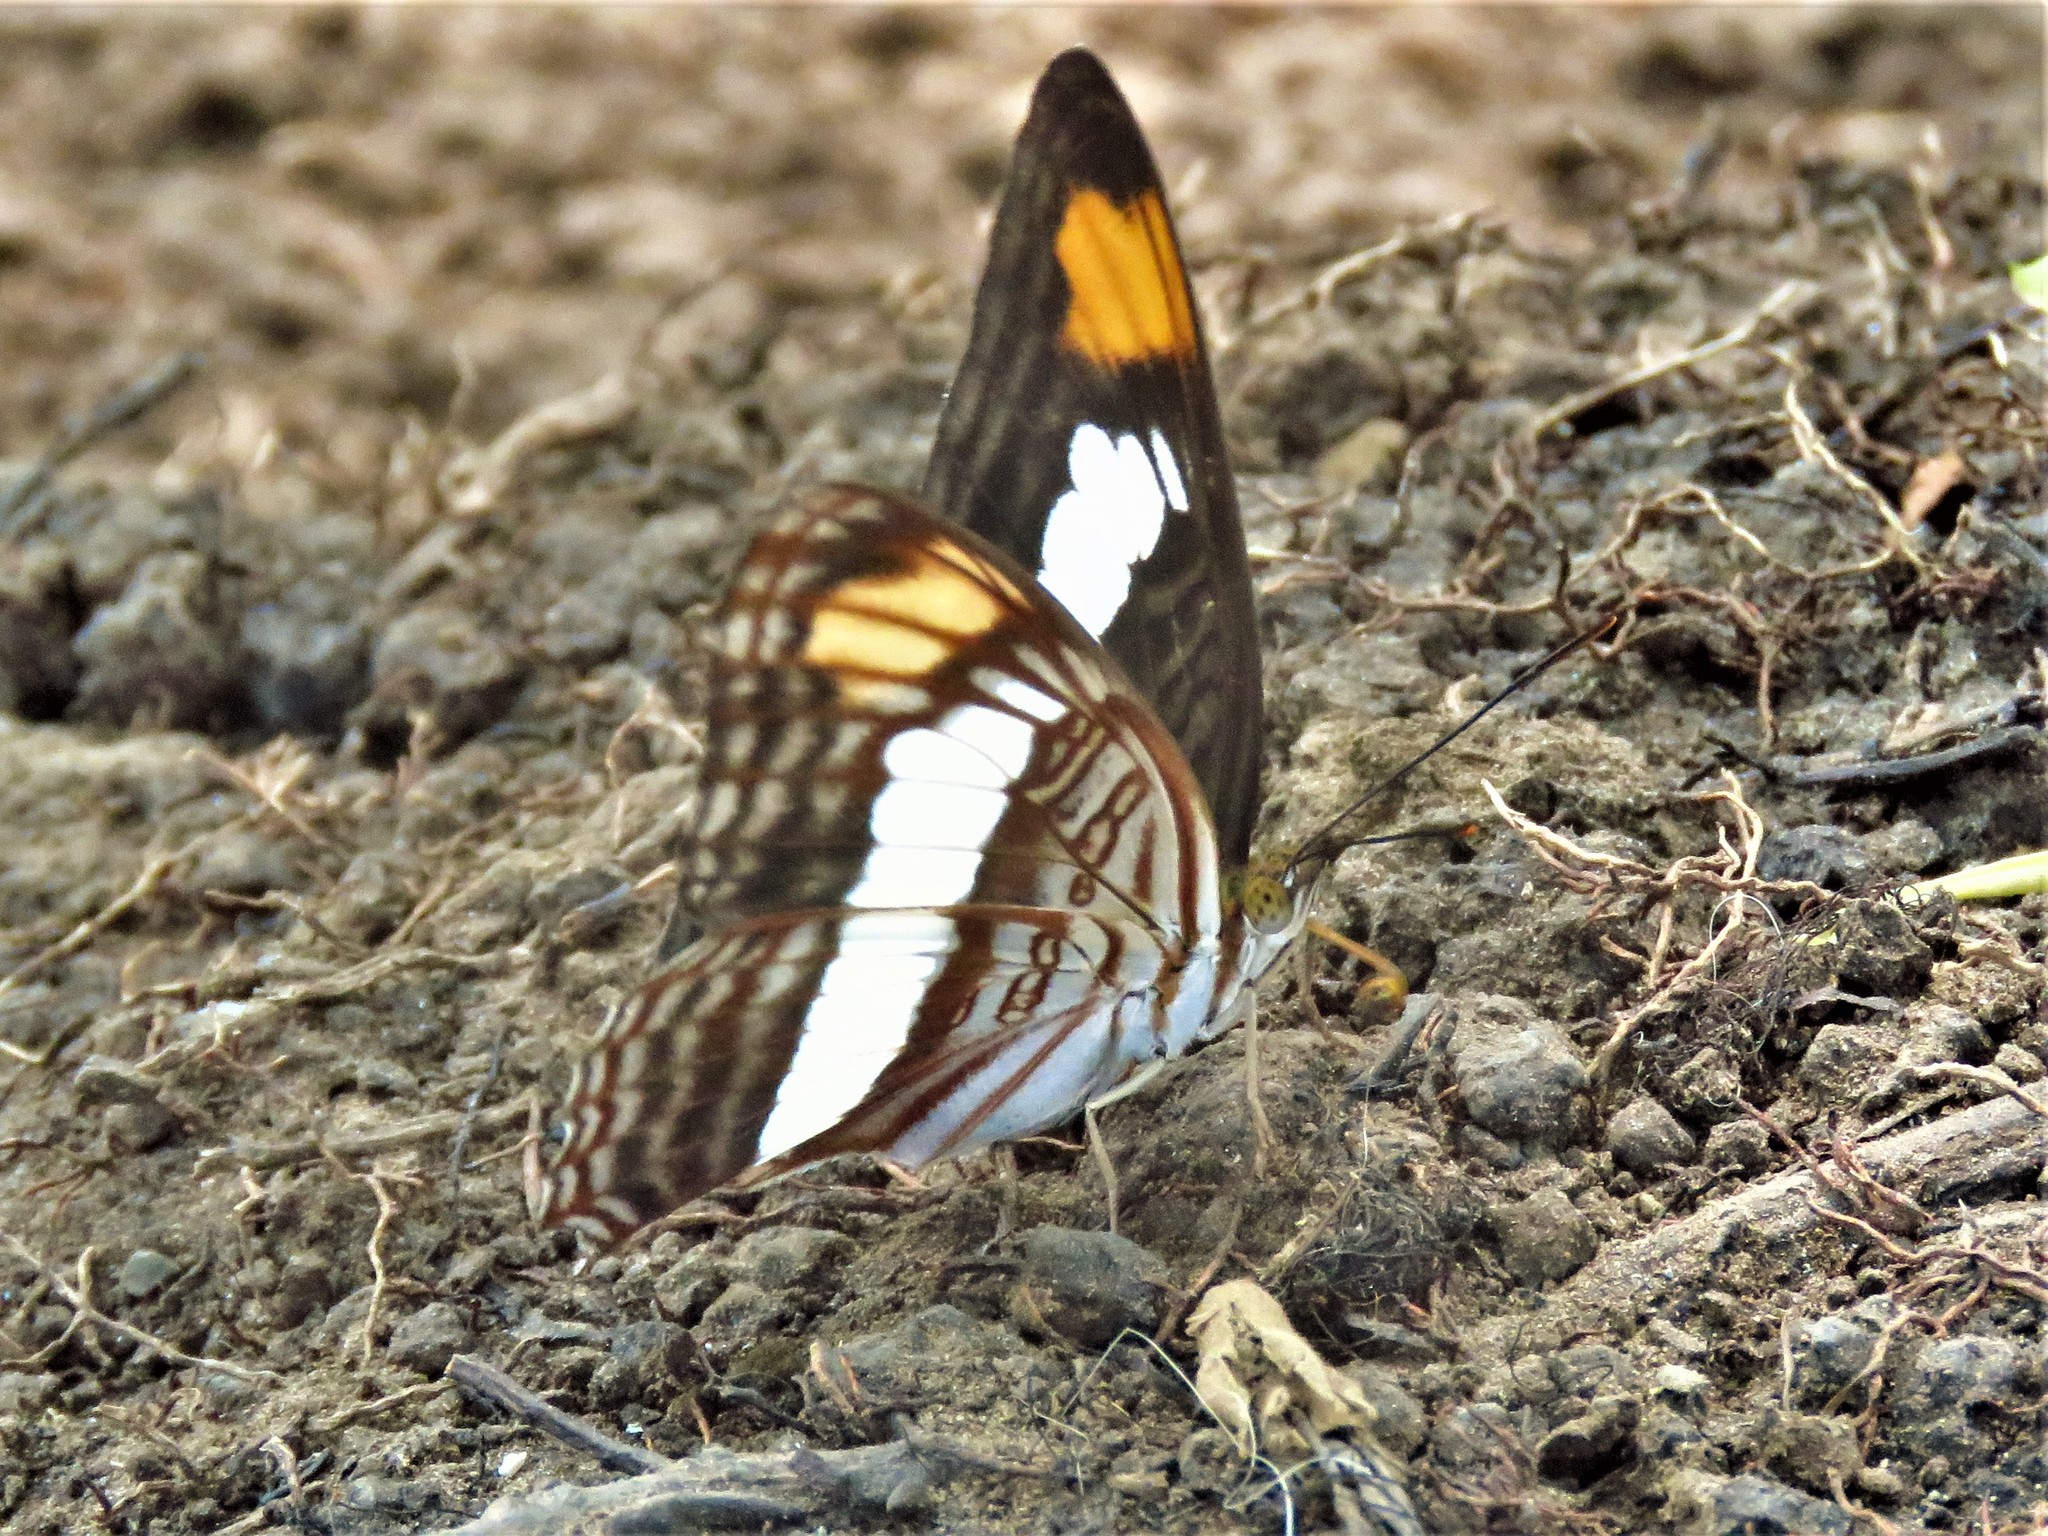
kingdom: Animalia
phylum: Arthropoda
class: Insecta
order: Lepidoptera
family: Nymphalidae
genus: Limenitis
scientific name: Limenitis iphiclus
